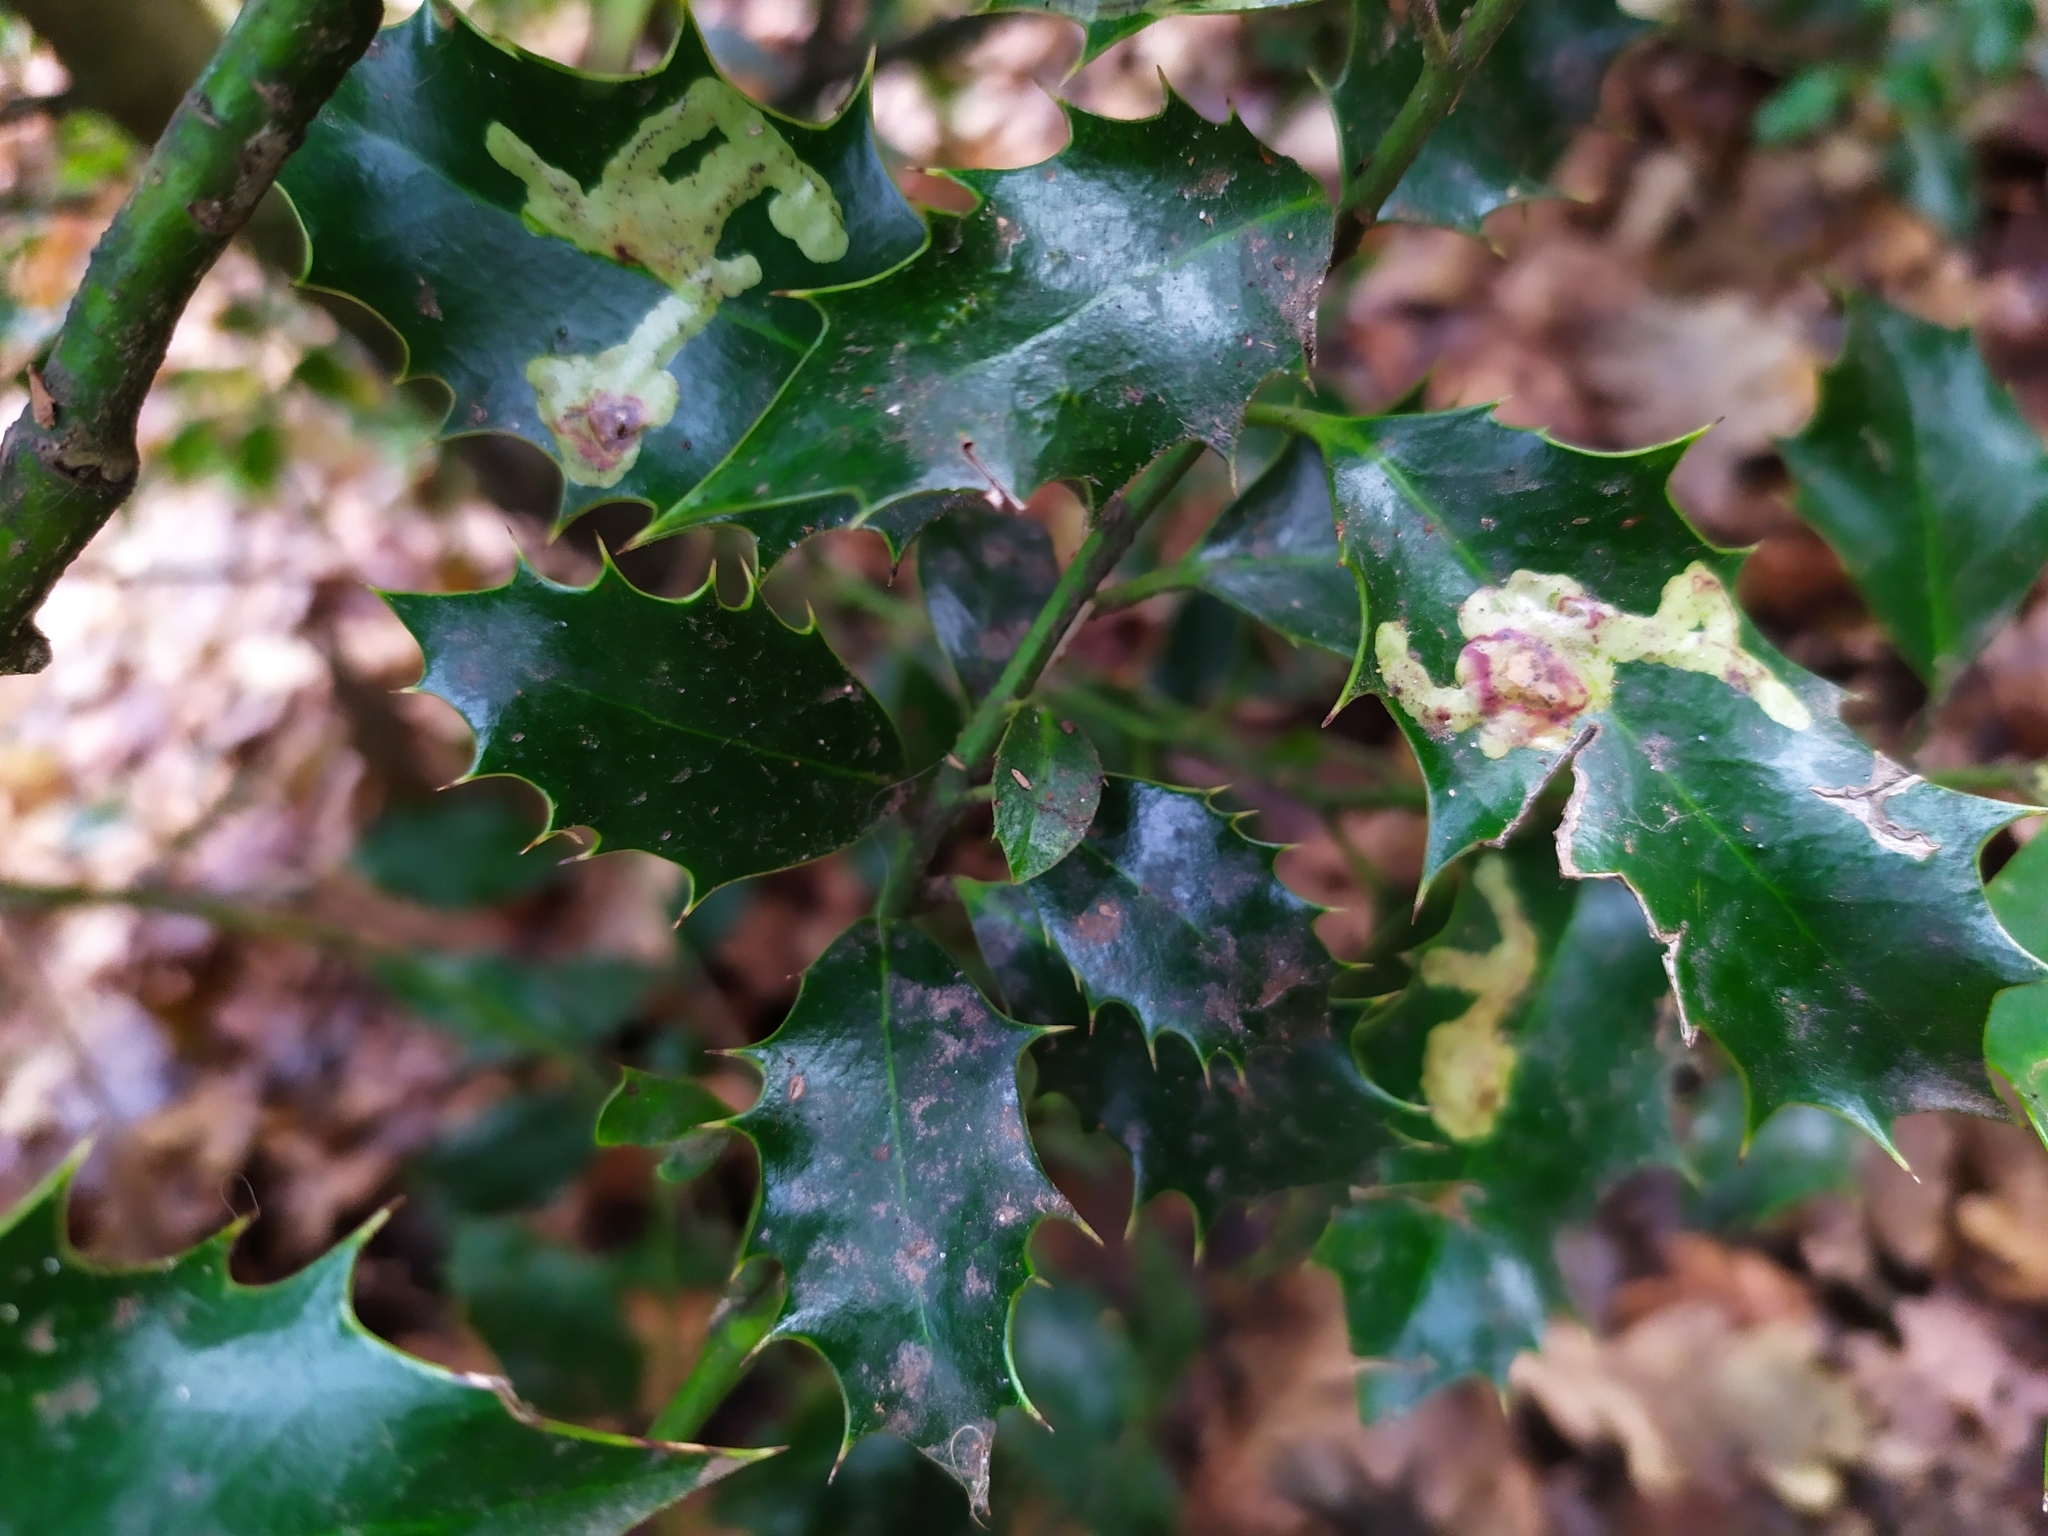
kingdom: Animalia
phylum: Arthropoda
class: Insecta
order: Diptera
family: Agromyzidae
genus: Phytomyza
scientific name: Phytomyza ilicis
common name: Holly leafminer
